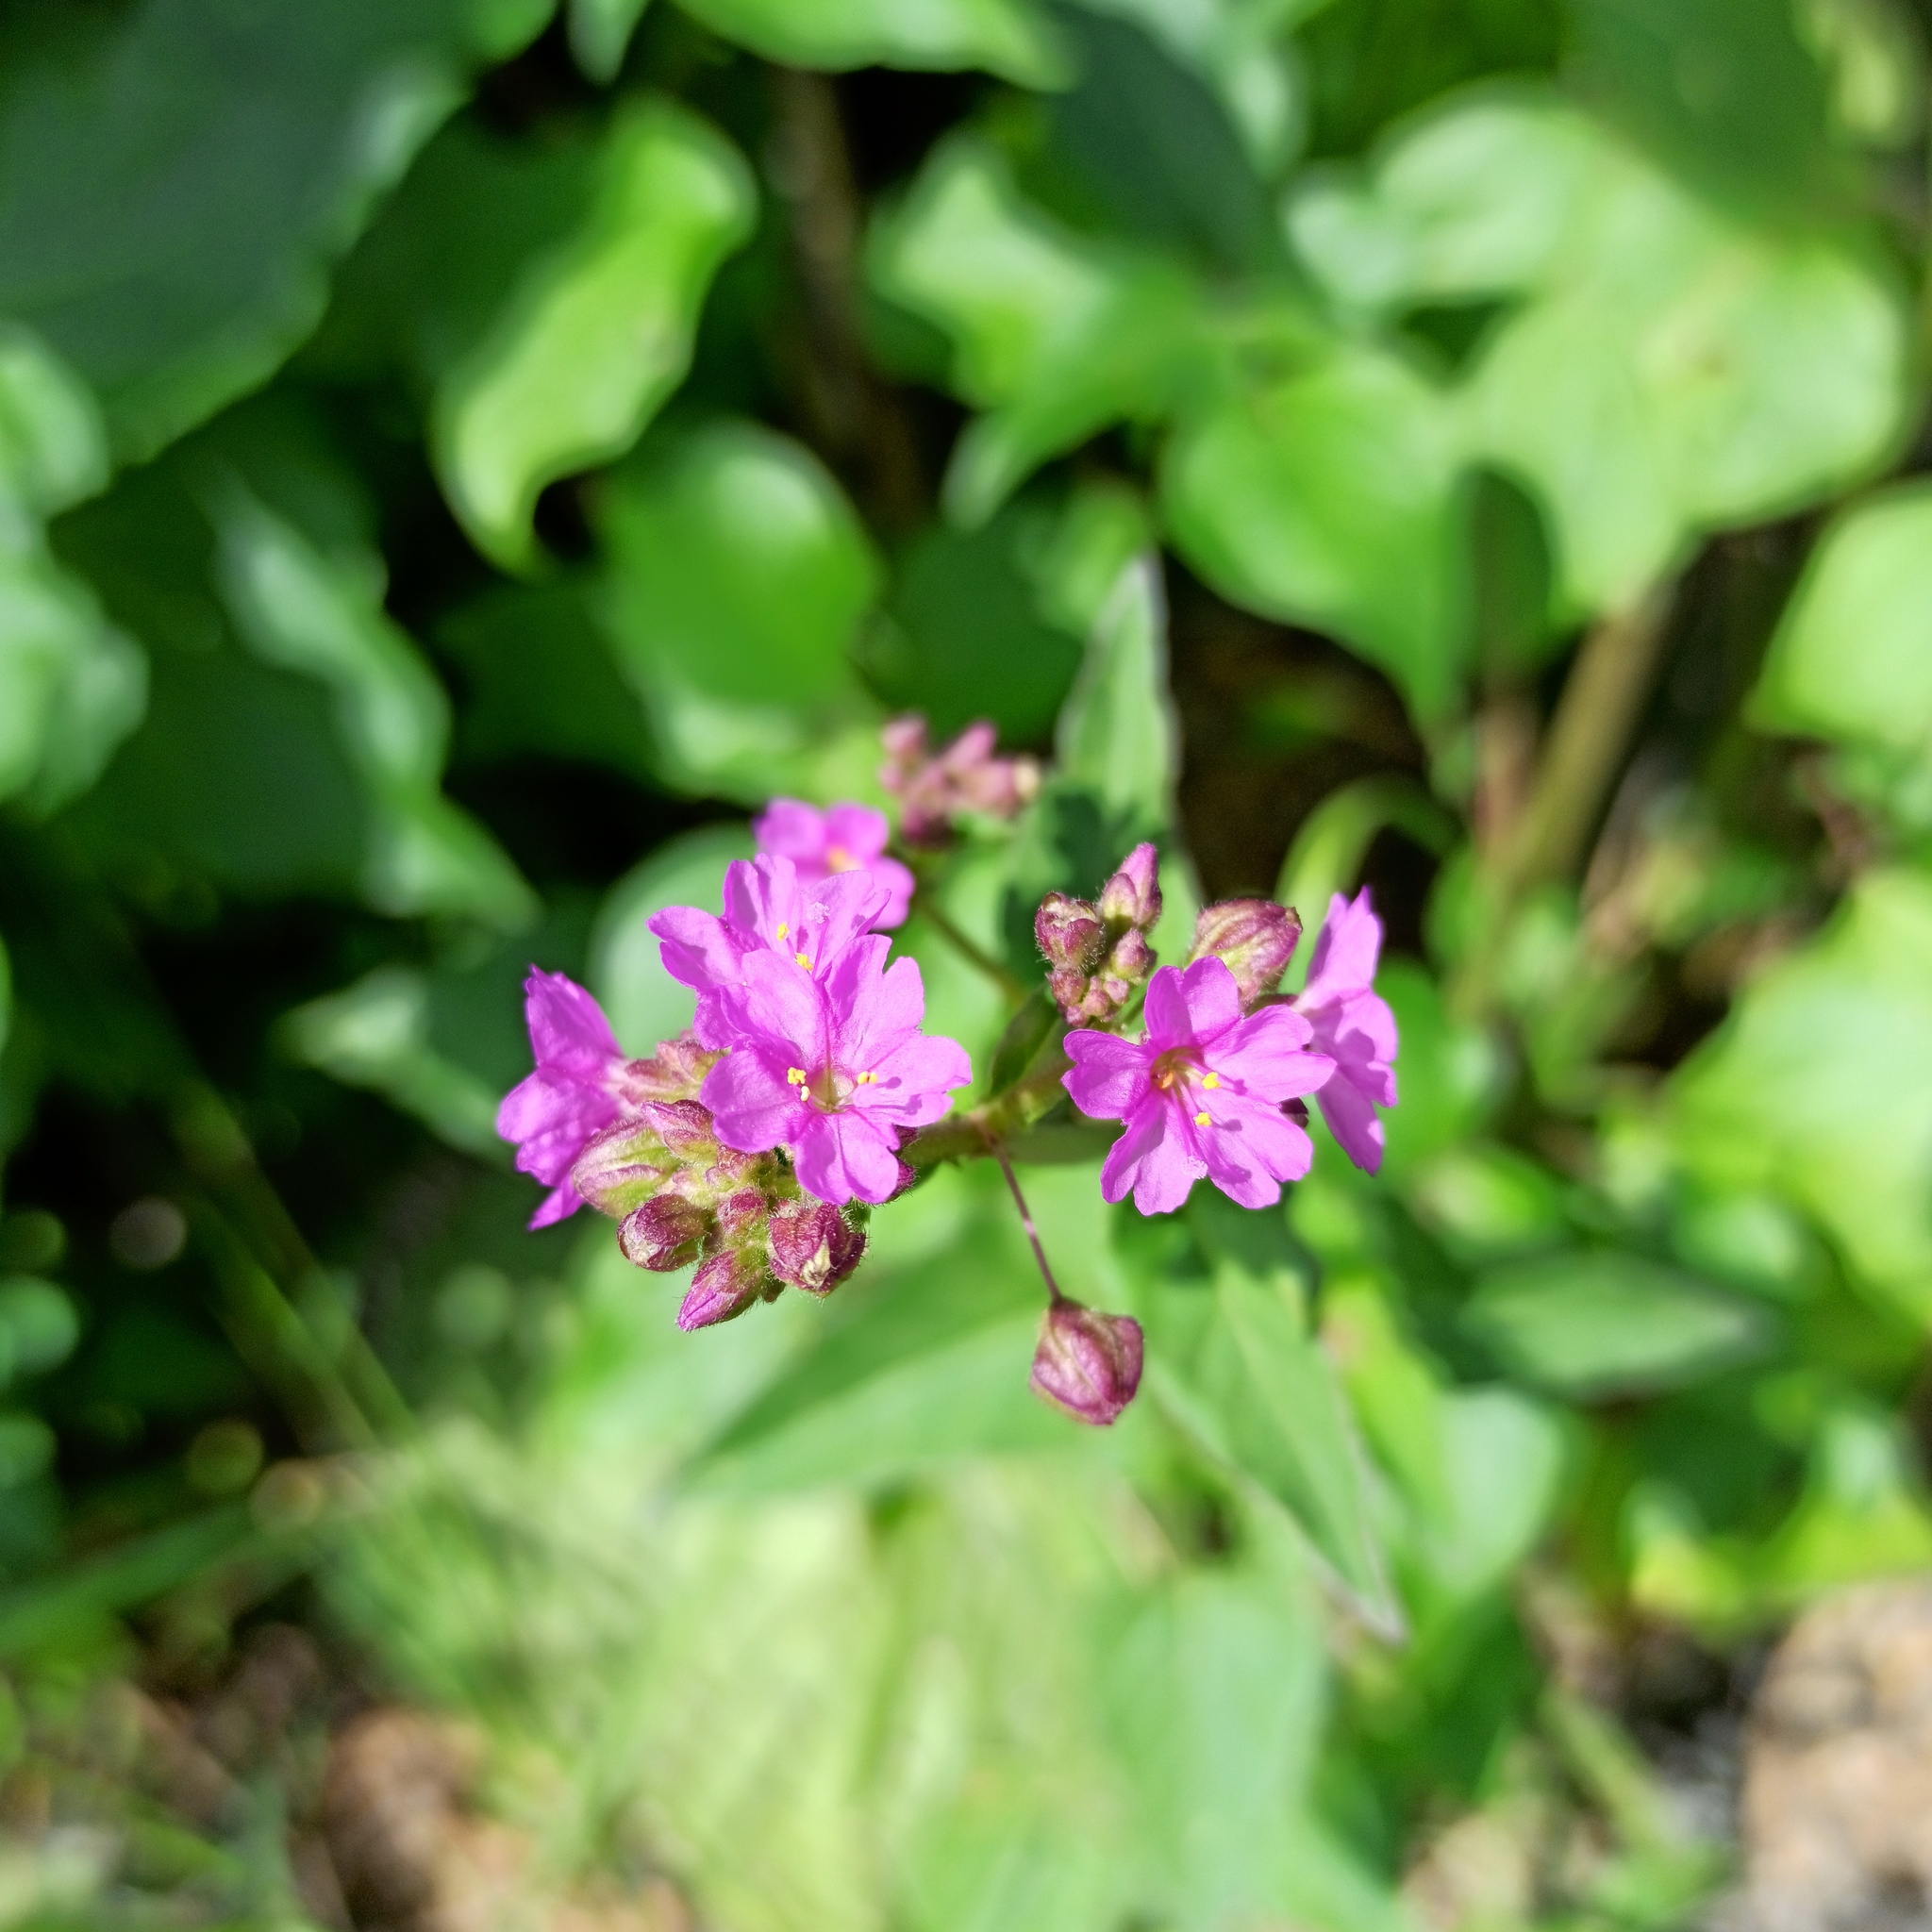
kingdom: Plantae
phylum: Tracheophyta
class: Magnoliopsida
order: Caryophyllales
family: Nyctaginaceae
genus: Mirabilis
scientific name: Mirabilis viscosa
